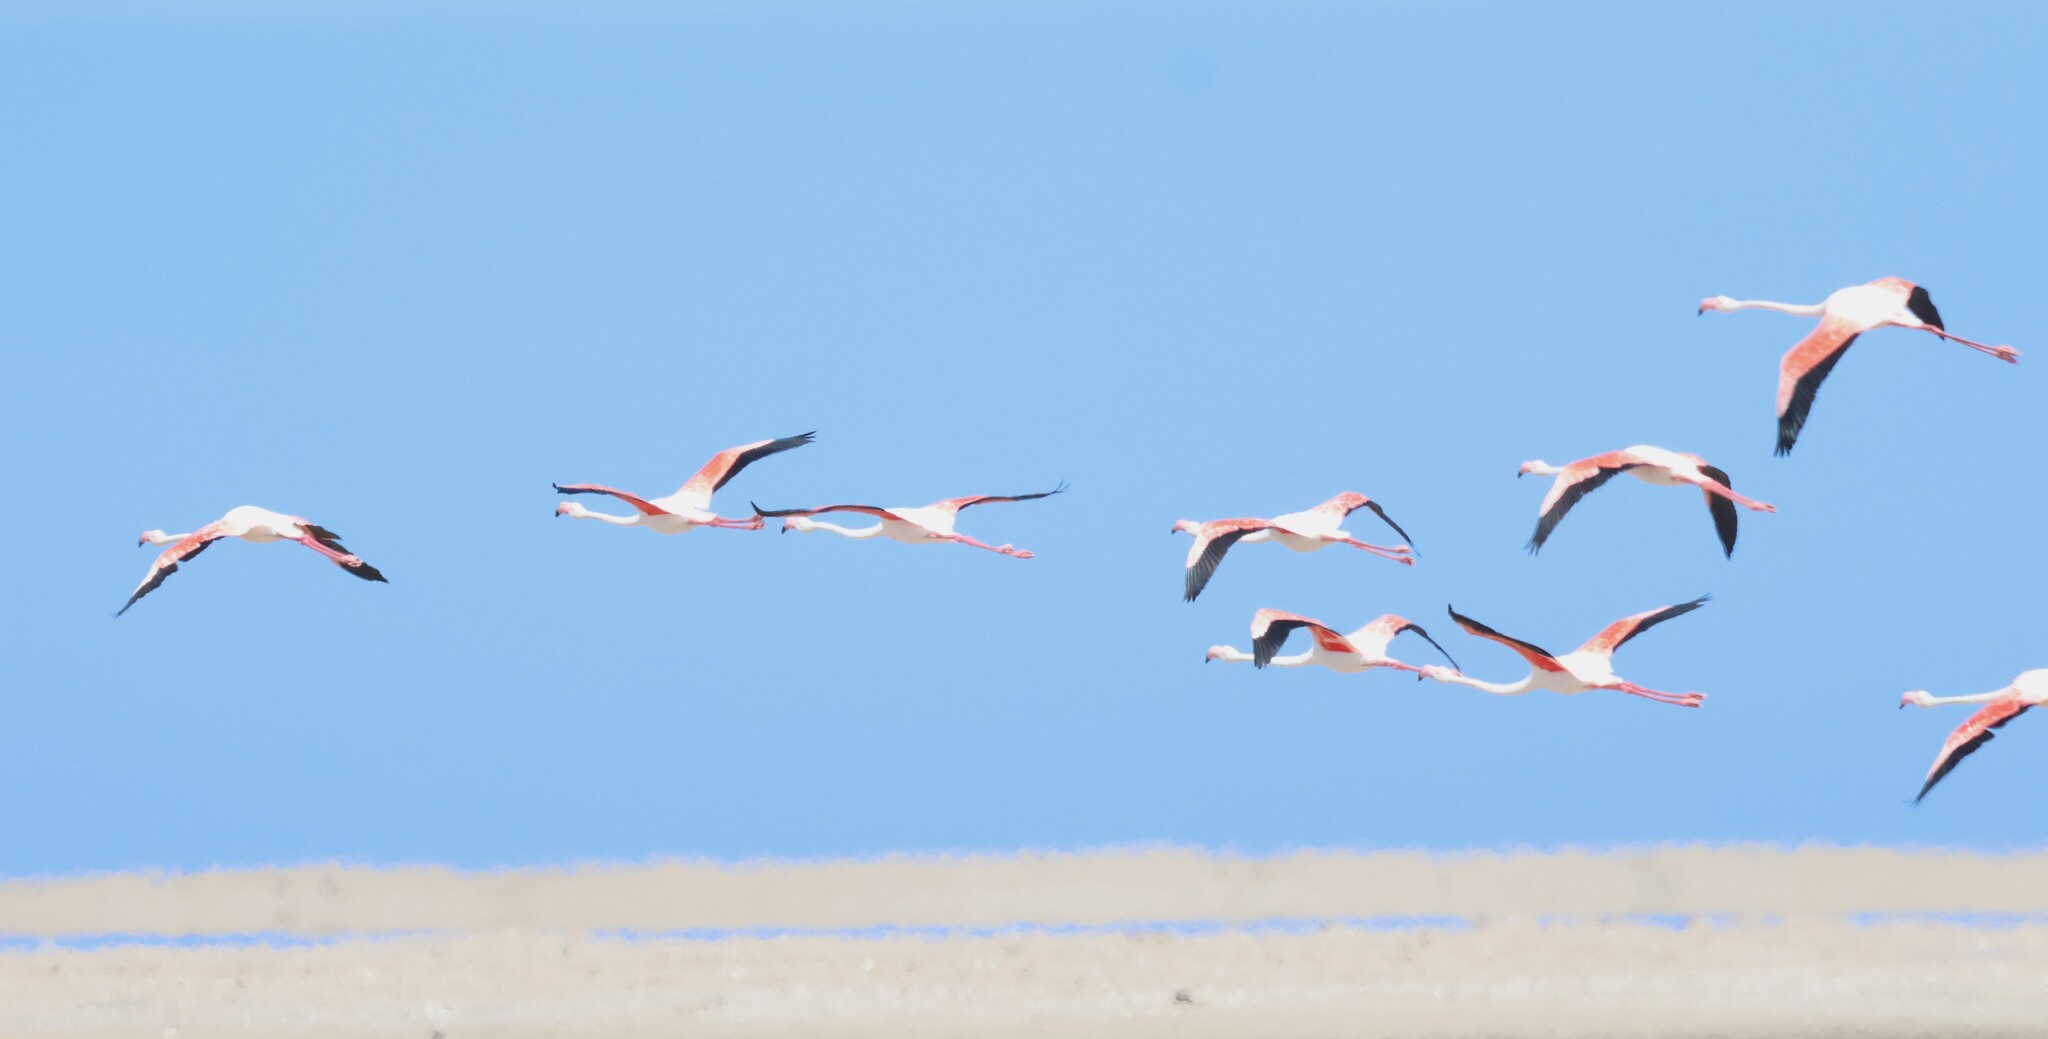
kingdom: Animalia
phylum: Chordata
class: Aves
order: Phoenicopteriformes
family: Phoenicopteridae
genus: Phoenicopterus
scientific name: Phoenicopterus roseus
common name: Greater flamingo
